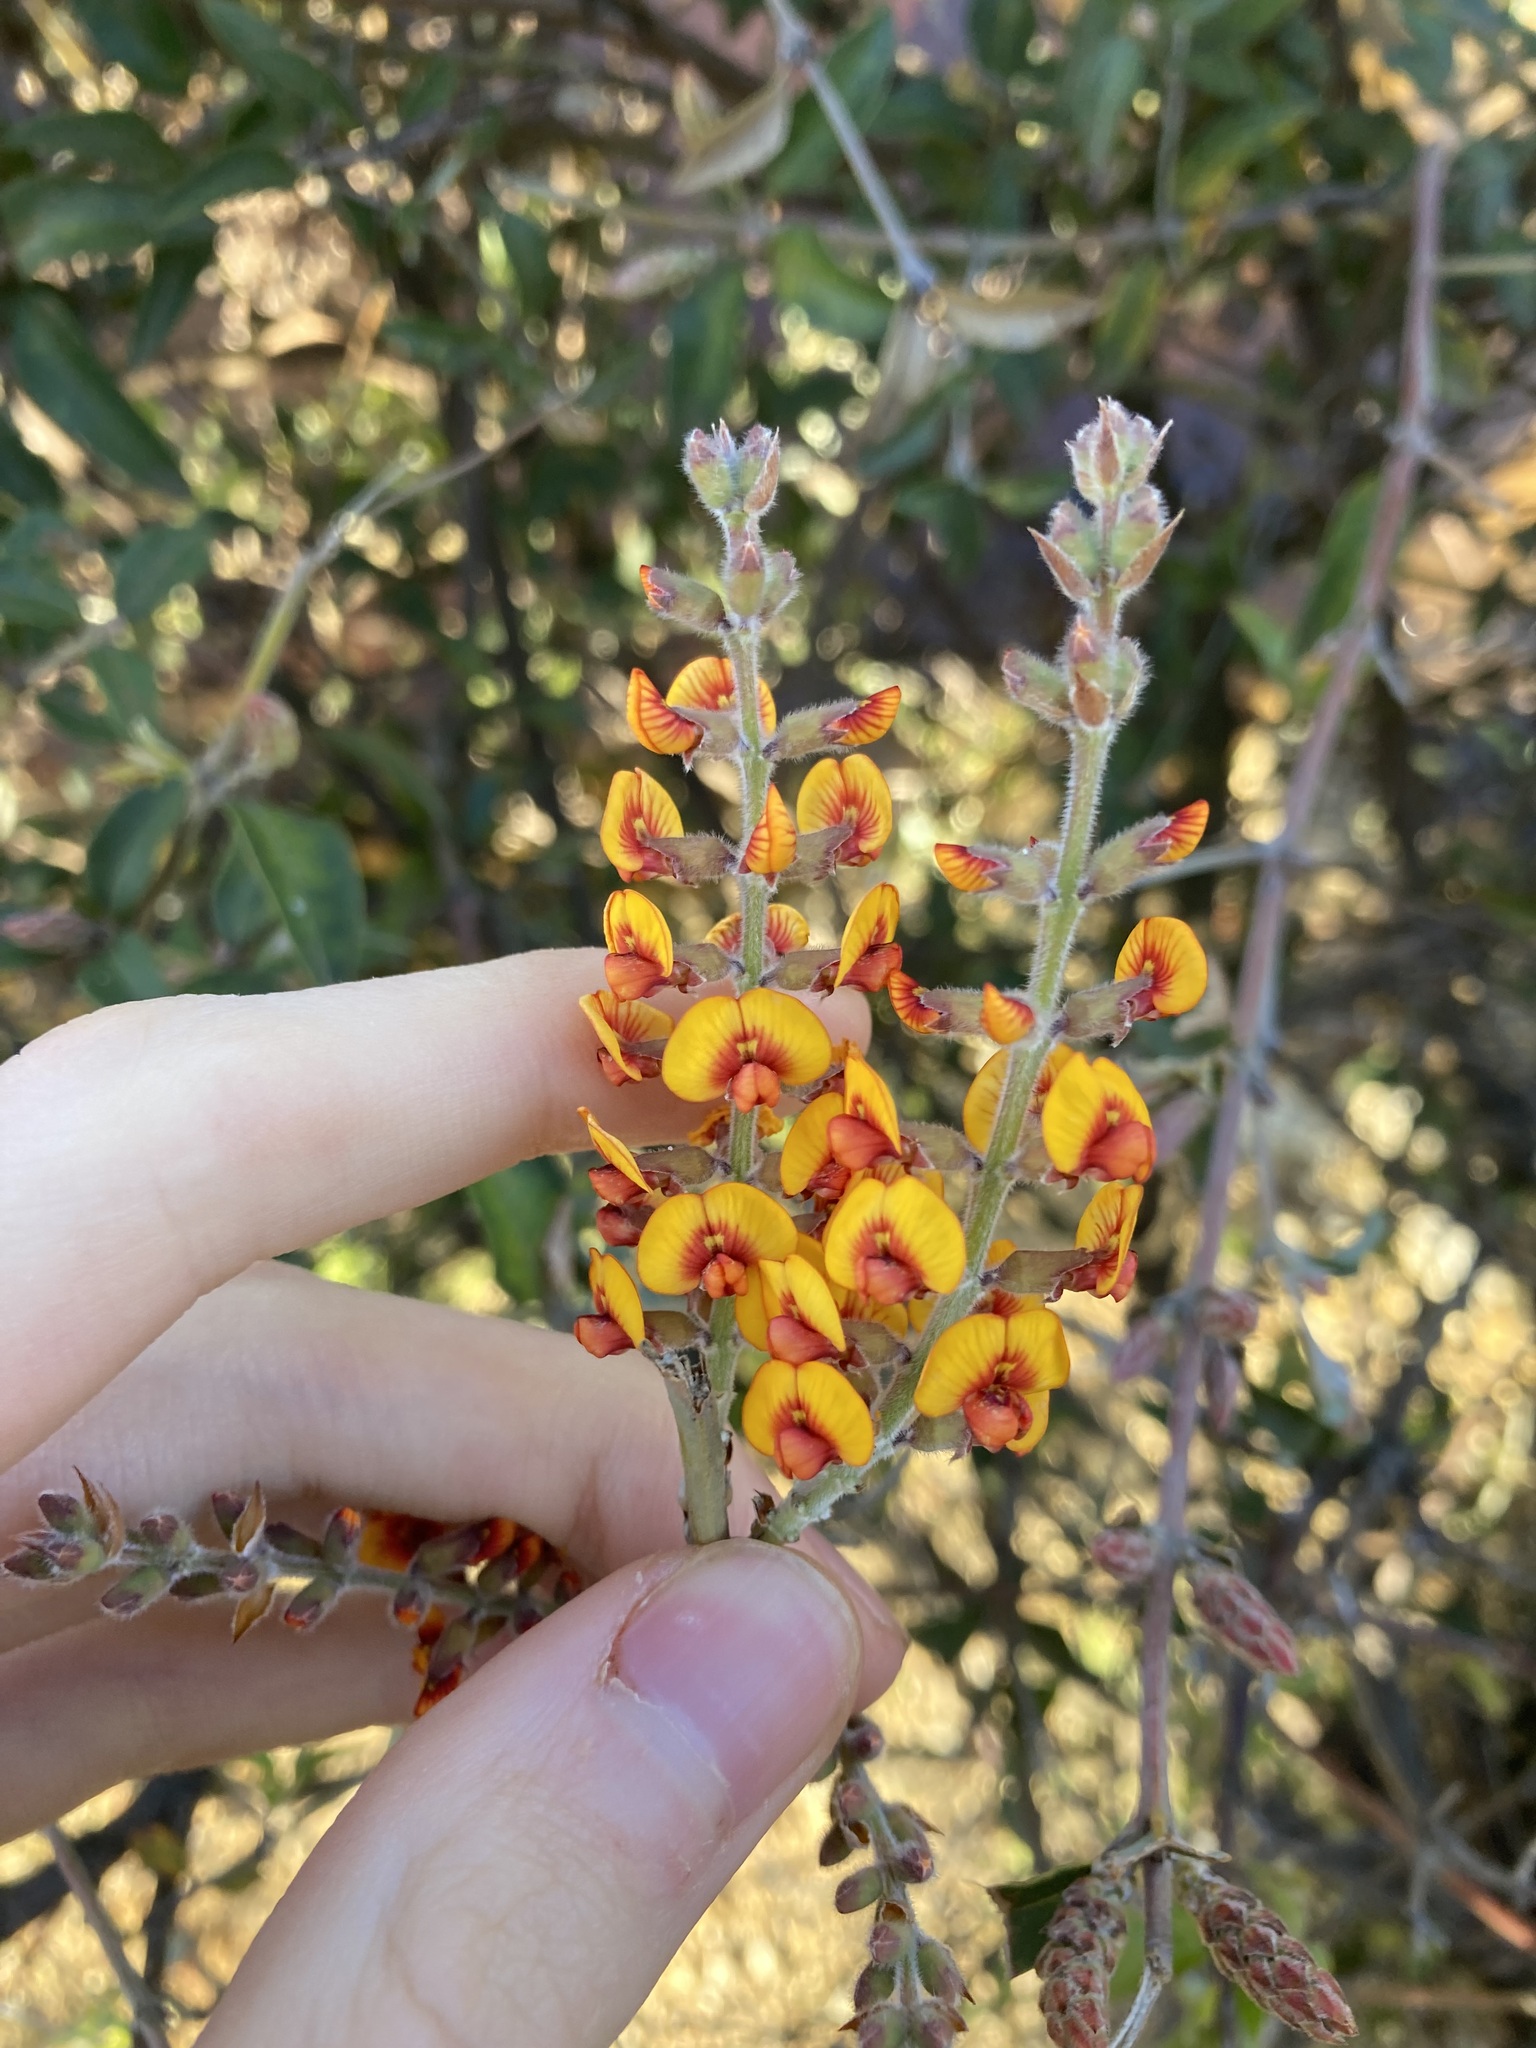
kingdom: Plantae
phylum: Tracheophyta
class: Magnoliopsida
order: Fabales
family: Fabaceae
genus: Gastrolobium
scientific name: Gastrolobium microcarpum
